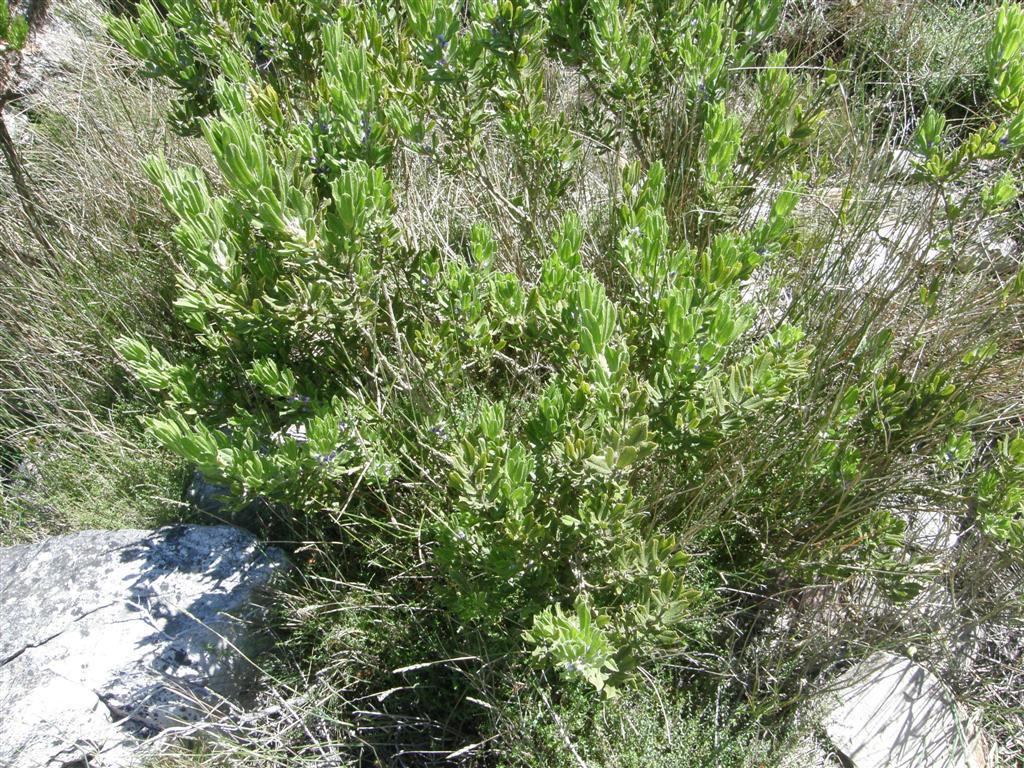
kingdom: Plantae
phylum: Tracheophyta
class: Magnoliopsida
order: Fabales
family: Fabaceae
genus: Psoralea
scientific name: Psoralea mundiana
